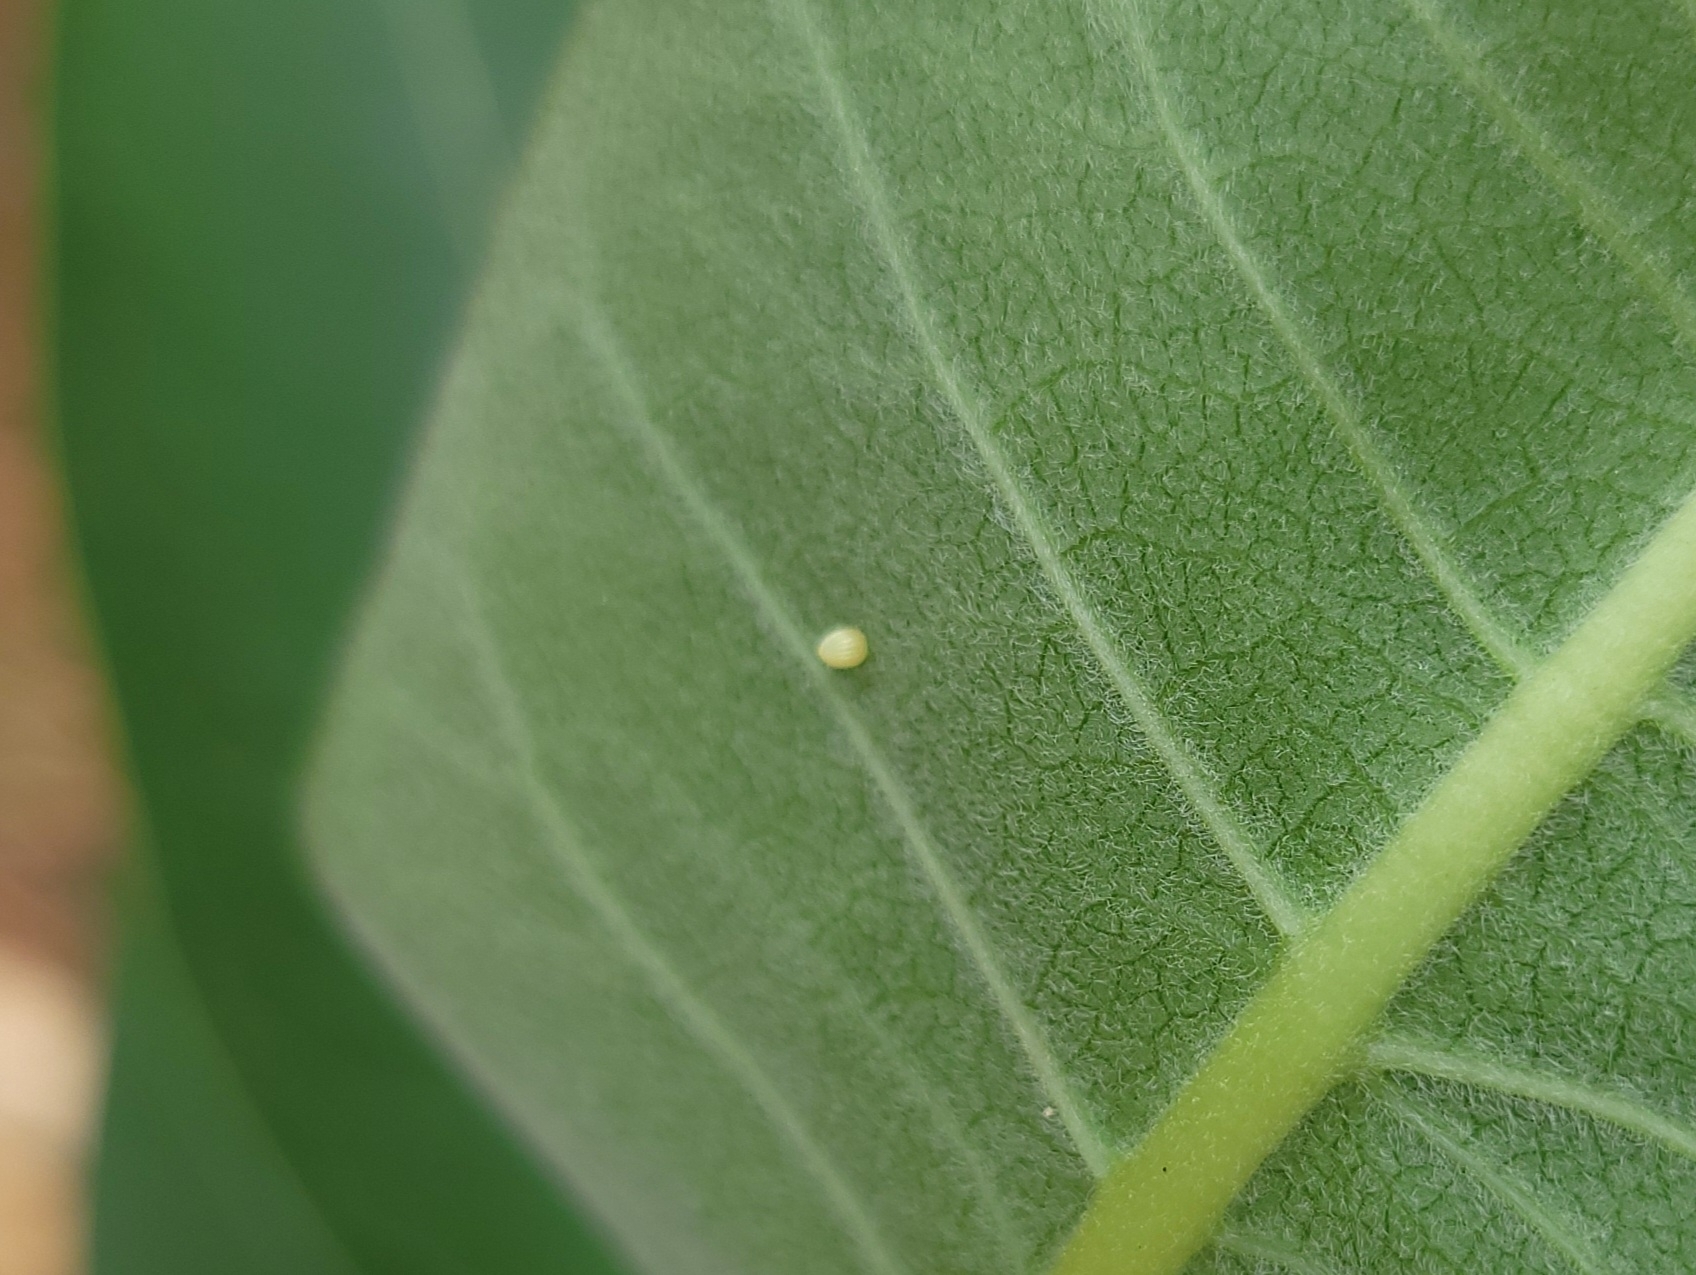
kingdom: Animalia
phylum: Arthropoda
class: Insecta
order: Lepidoptera
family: Nymphalidae
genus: Danaus
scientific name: Danaus plexippus
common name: Monarch
